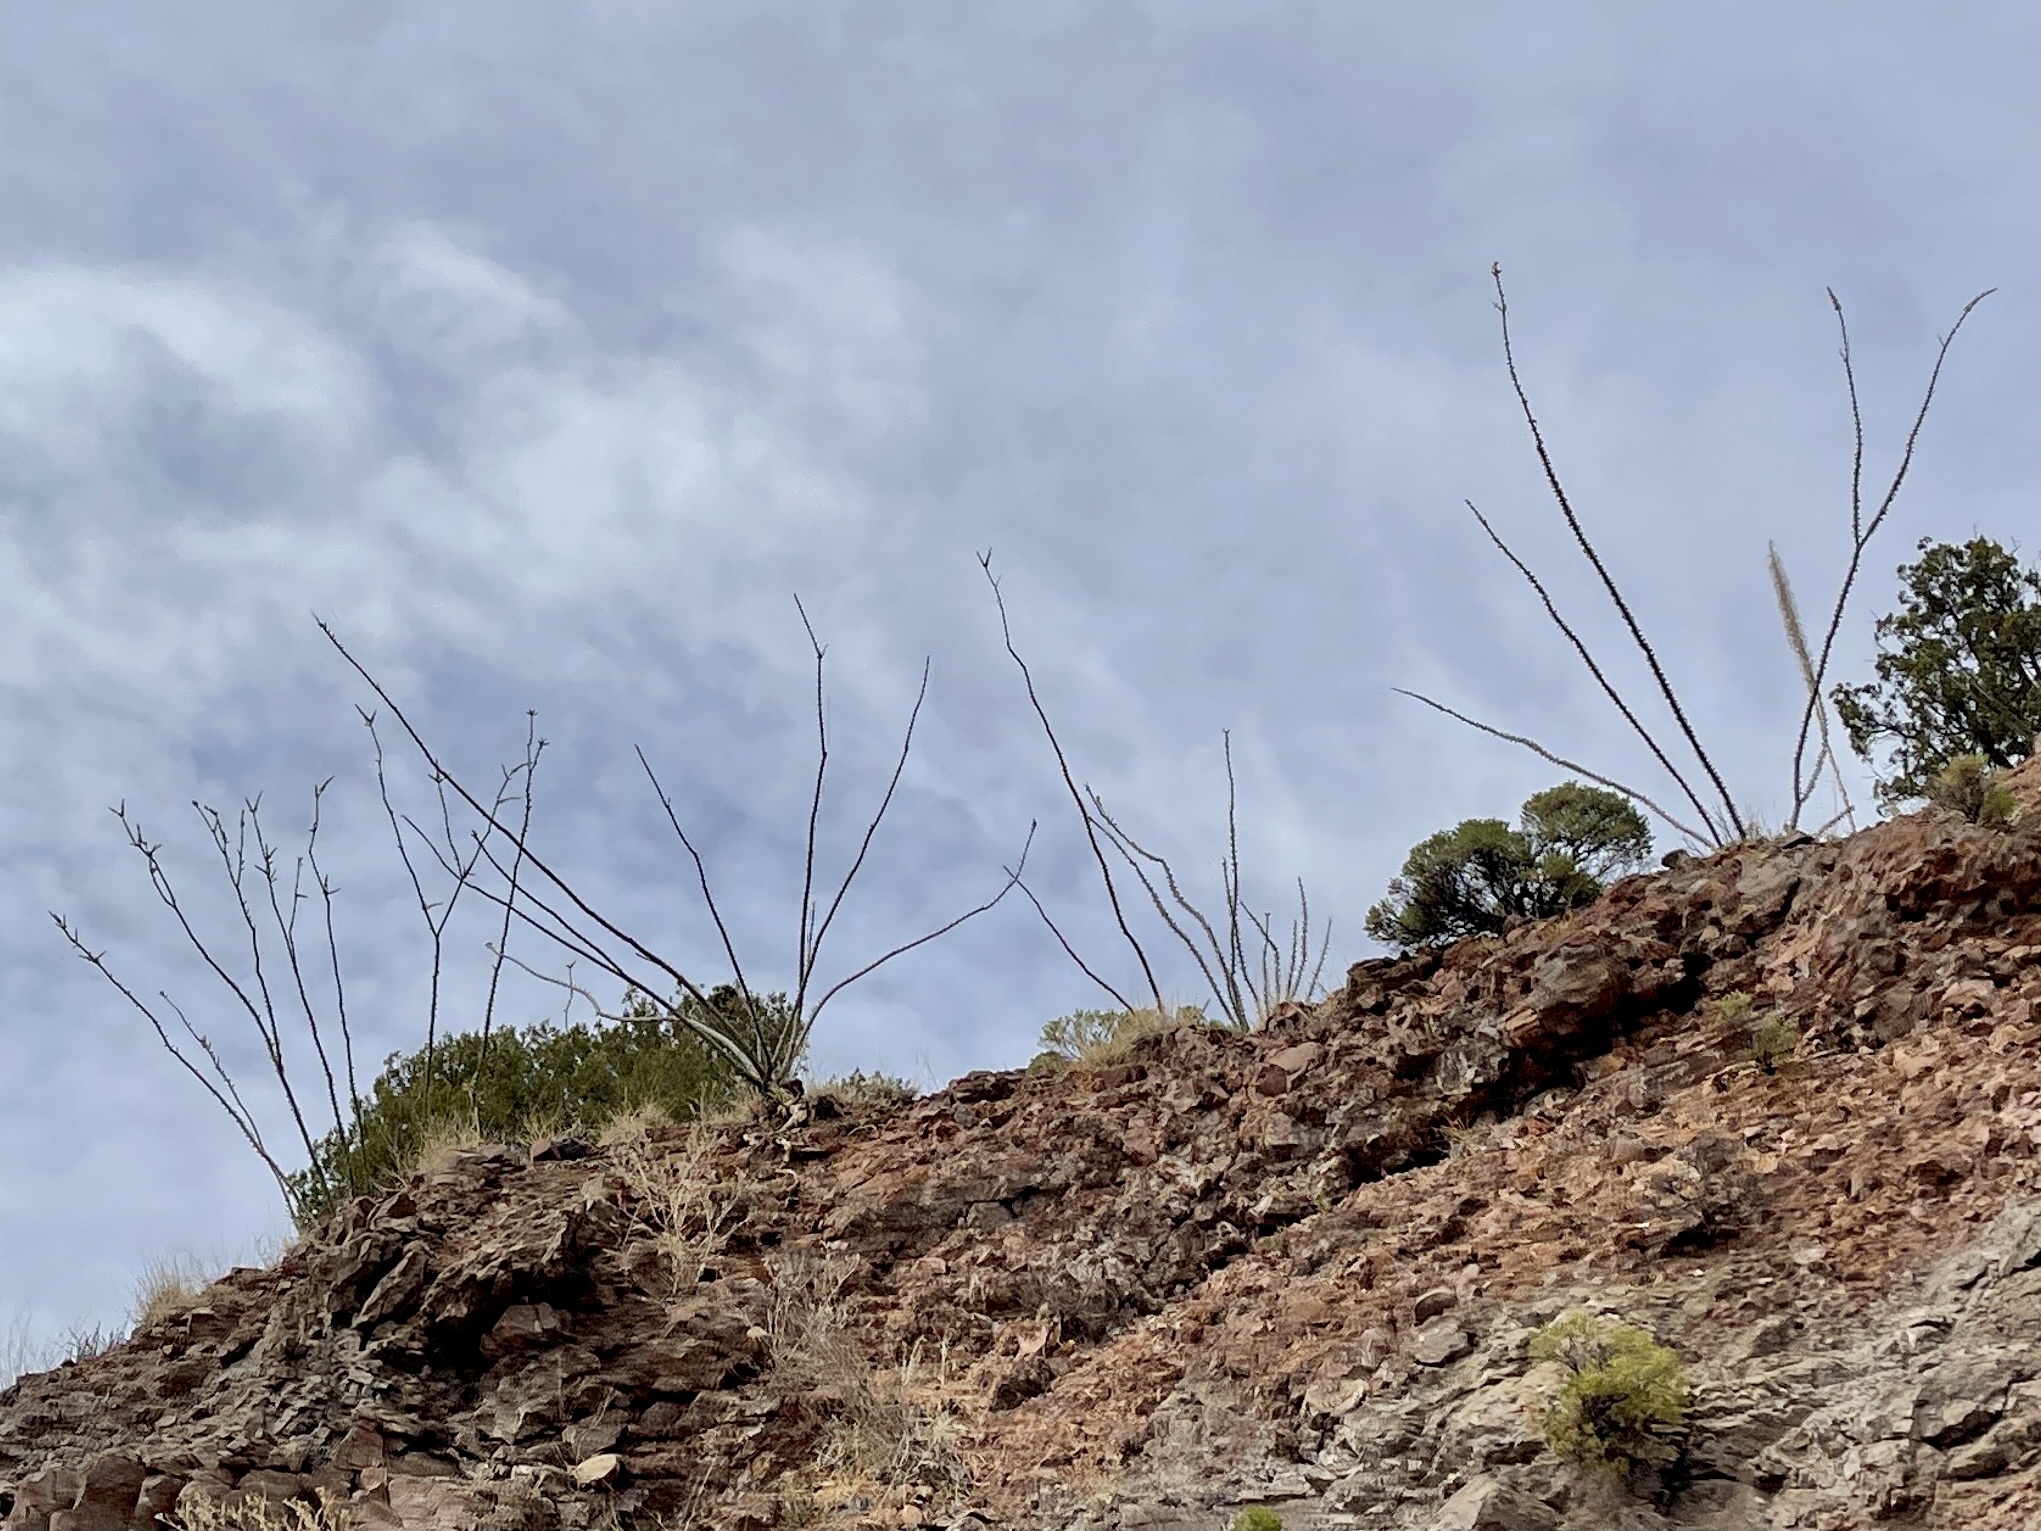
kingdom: Plantae
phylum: Tracheophyta
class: Magnoliopsida
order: Ericales
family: Fouquieriaceae
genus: Fouquieria
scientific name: Fouquieria splendens
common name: Vine-cactus
